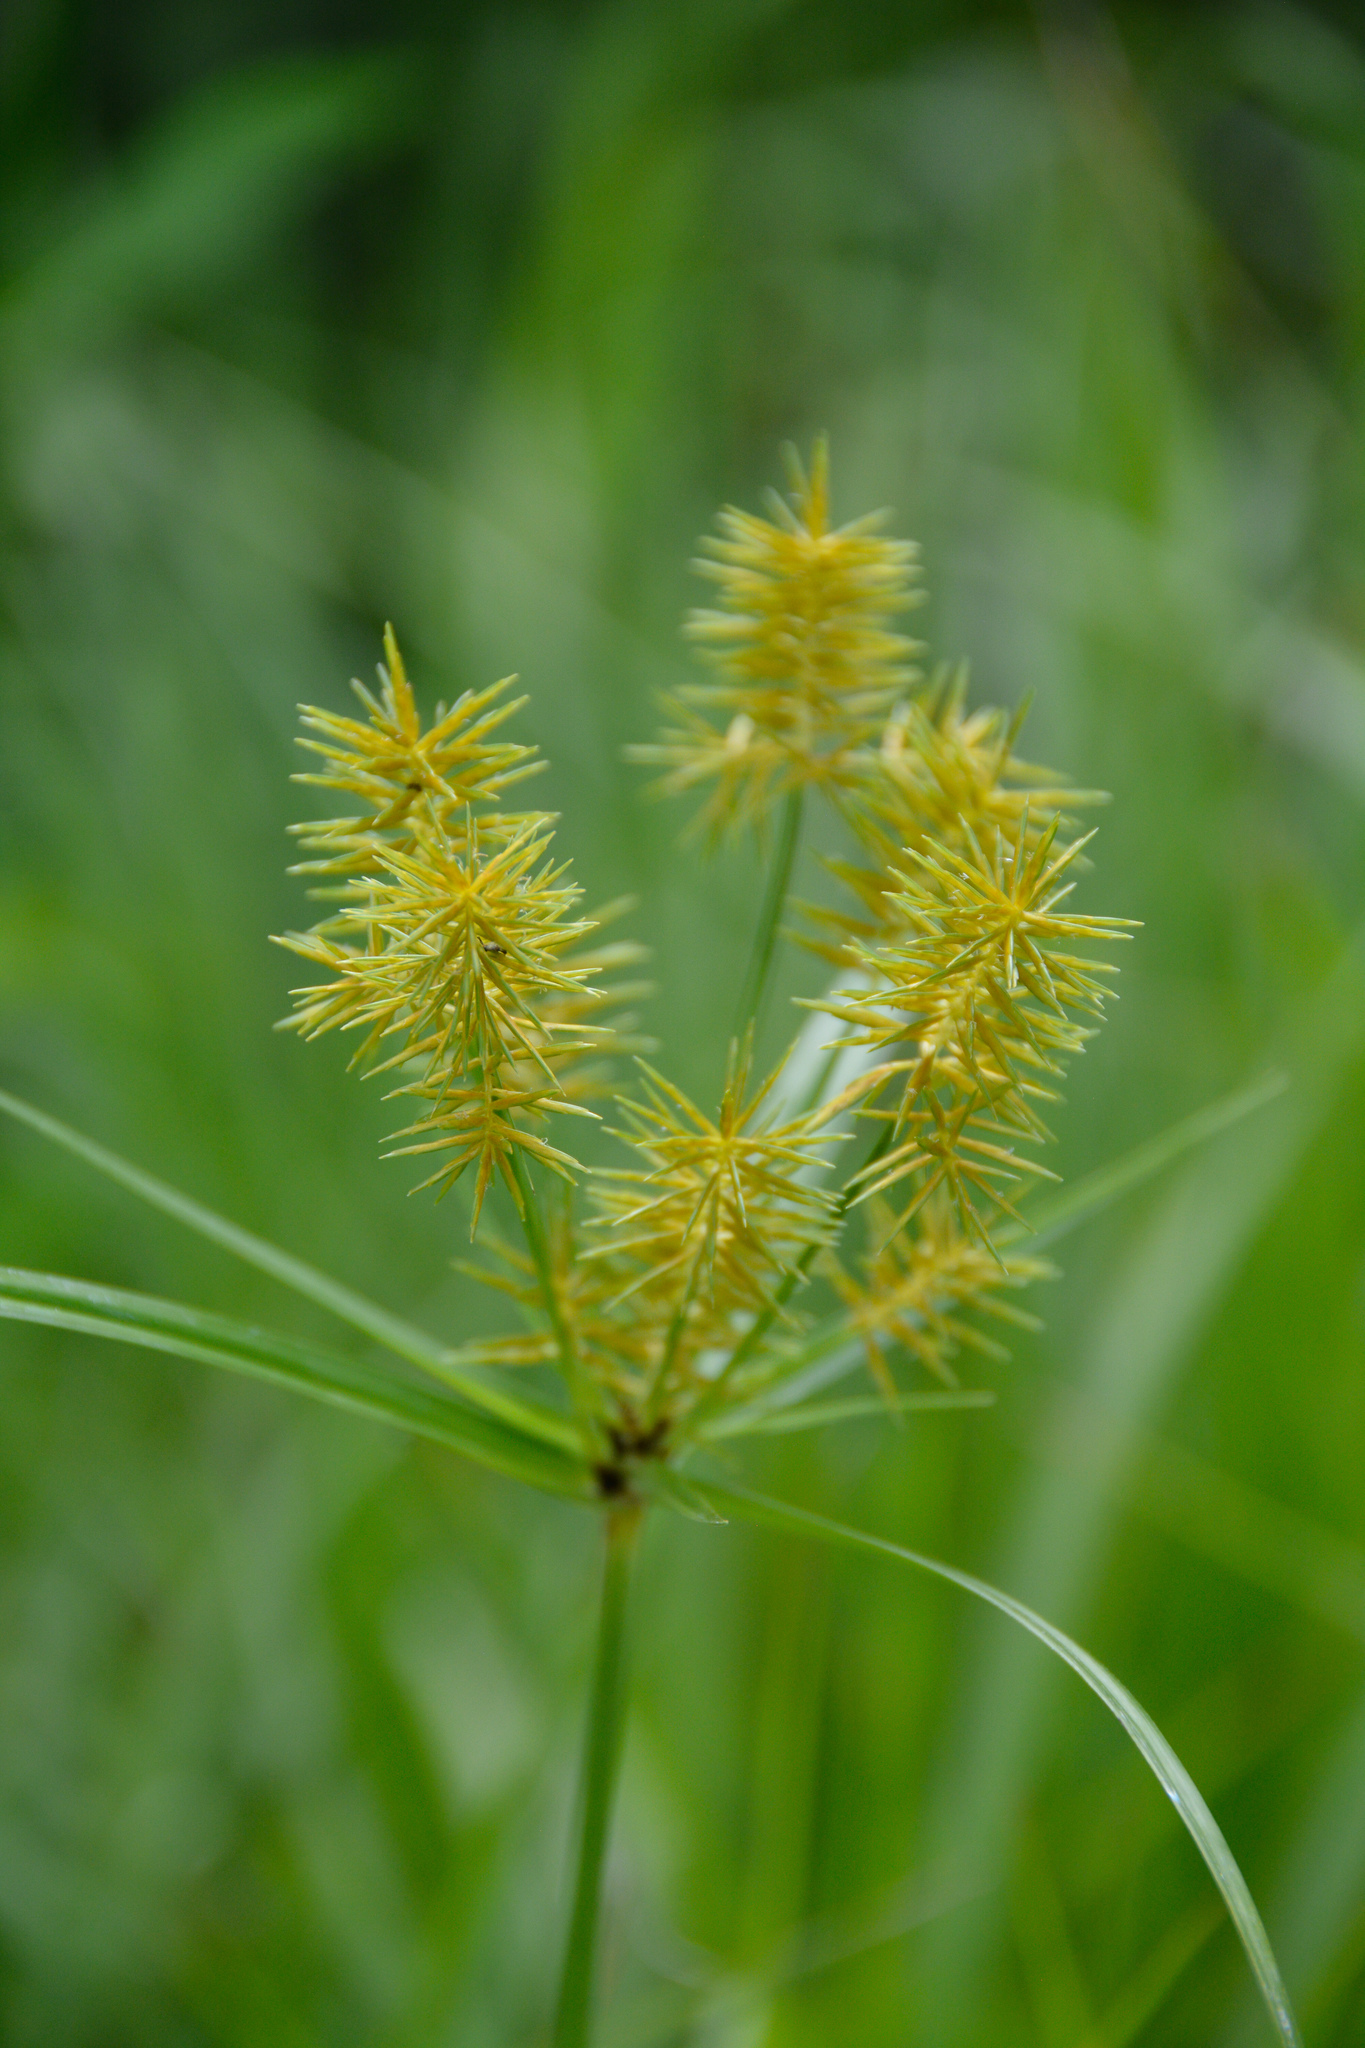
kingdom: Plantae
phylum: Tracheophyta
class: Liliopsida
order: Poales
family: Cyperaceae
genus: Cyperus
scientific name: Cyperus esculentus
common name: Yellow nutsedge
